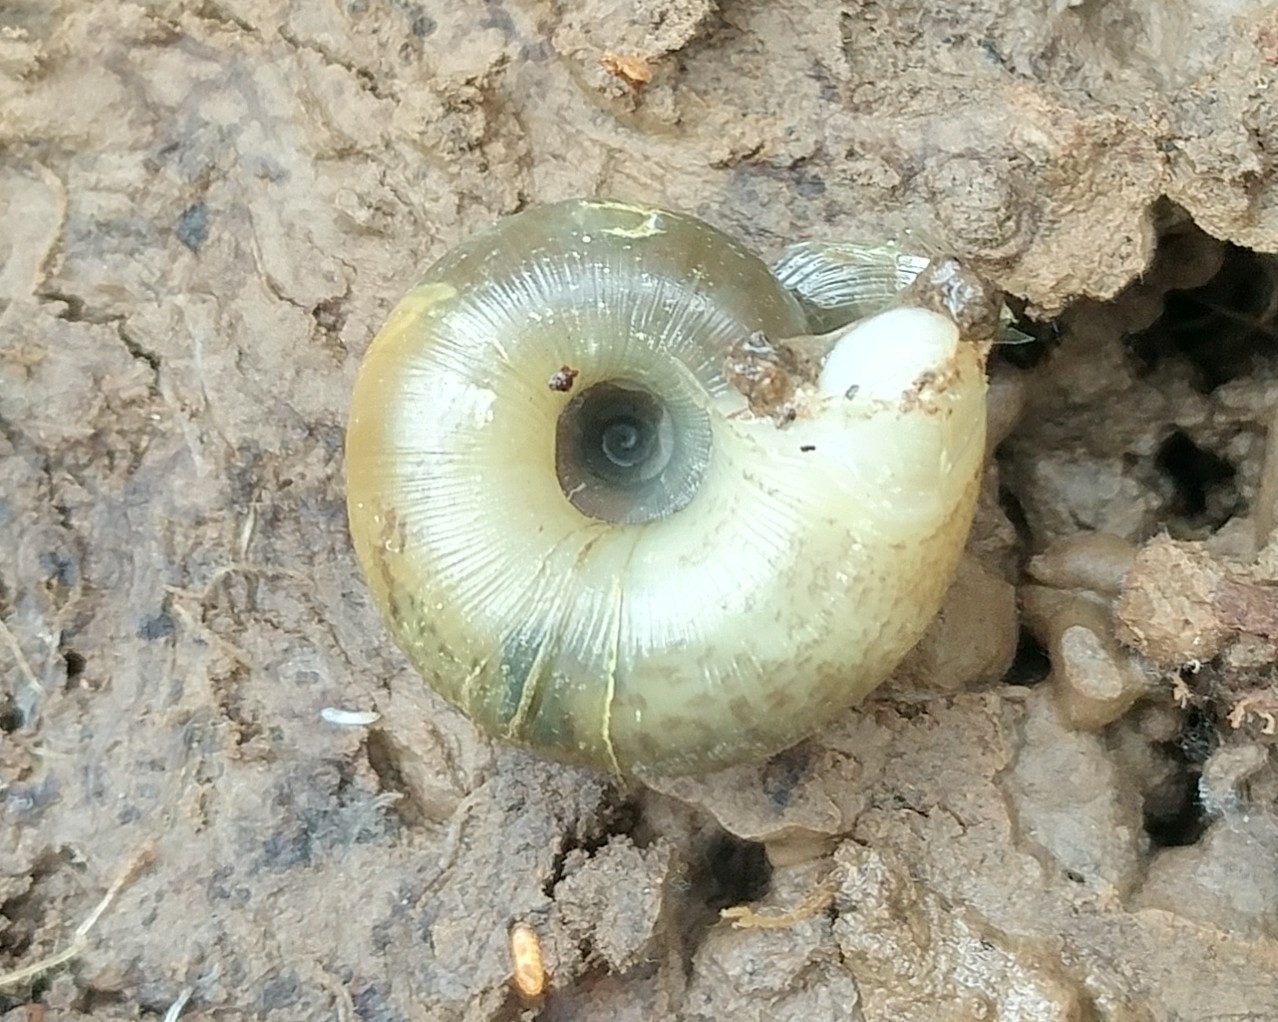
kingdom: Animalia
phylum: Mollusca
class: Gastropoda
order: Stylommatophora
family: Haplotrematidae
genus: Ancotrema
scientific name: Ancotrema sportella
